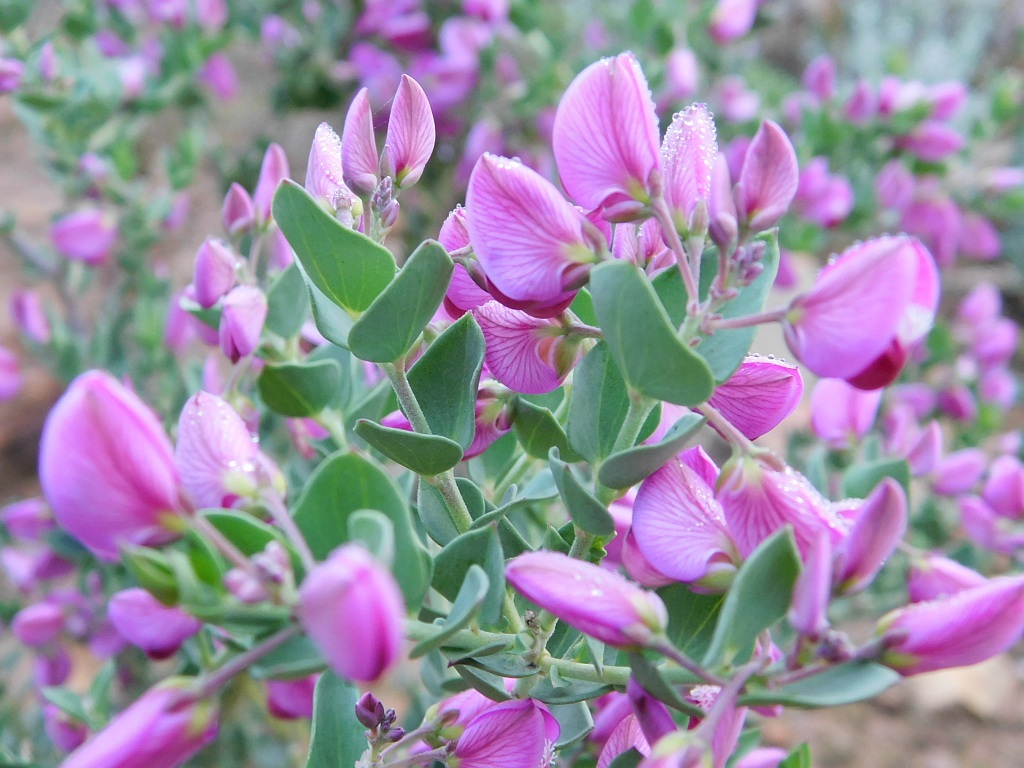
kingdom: Plantae
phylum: Tracheophyta
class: Magnoliopsida
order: Fabales
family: Polygalaceae
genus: Polygala
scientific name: Polygala fruticosa
